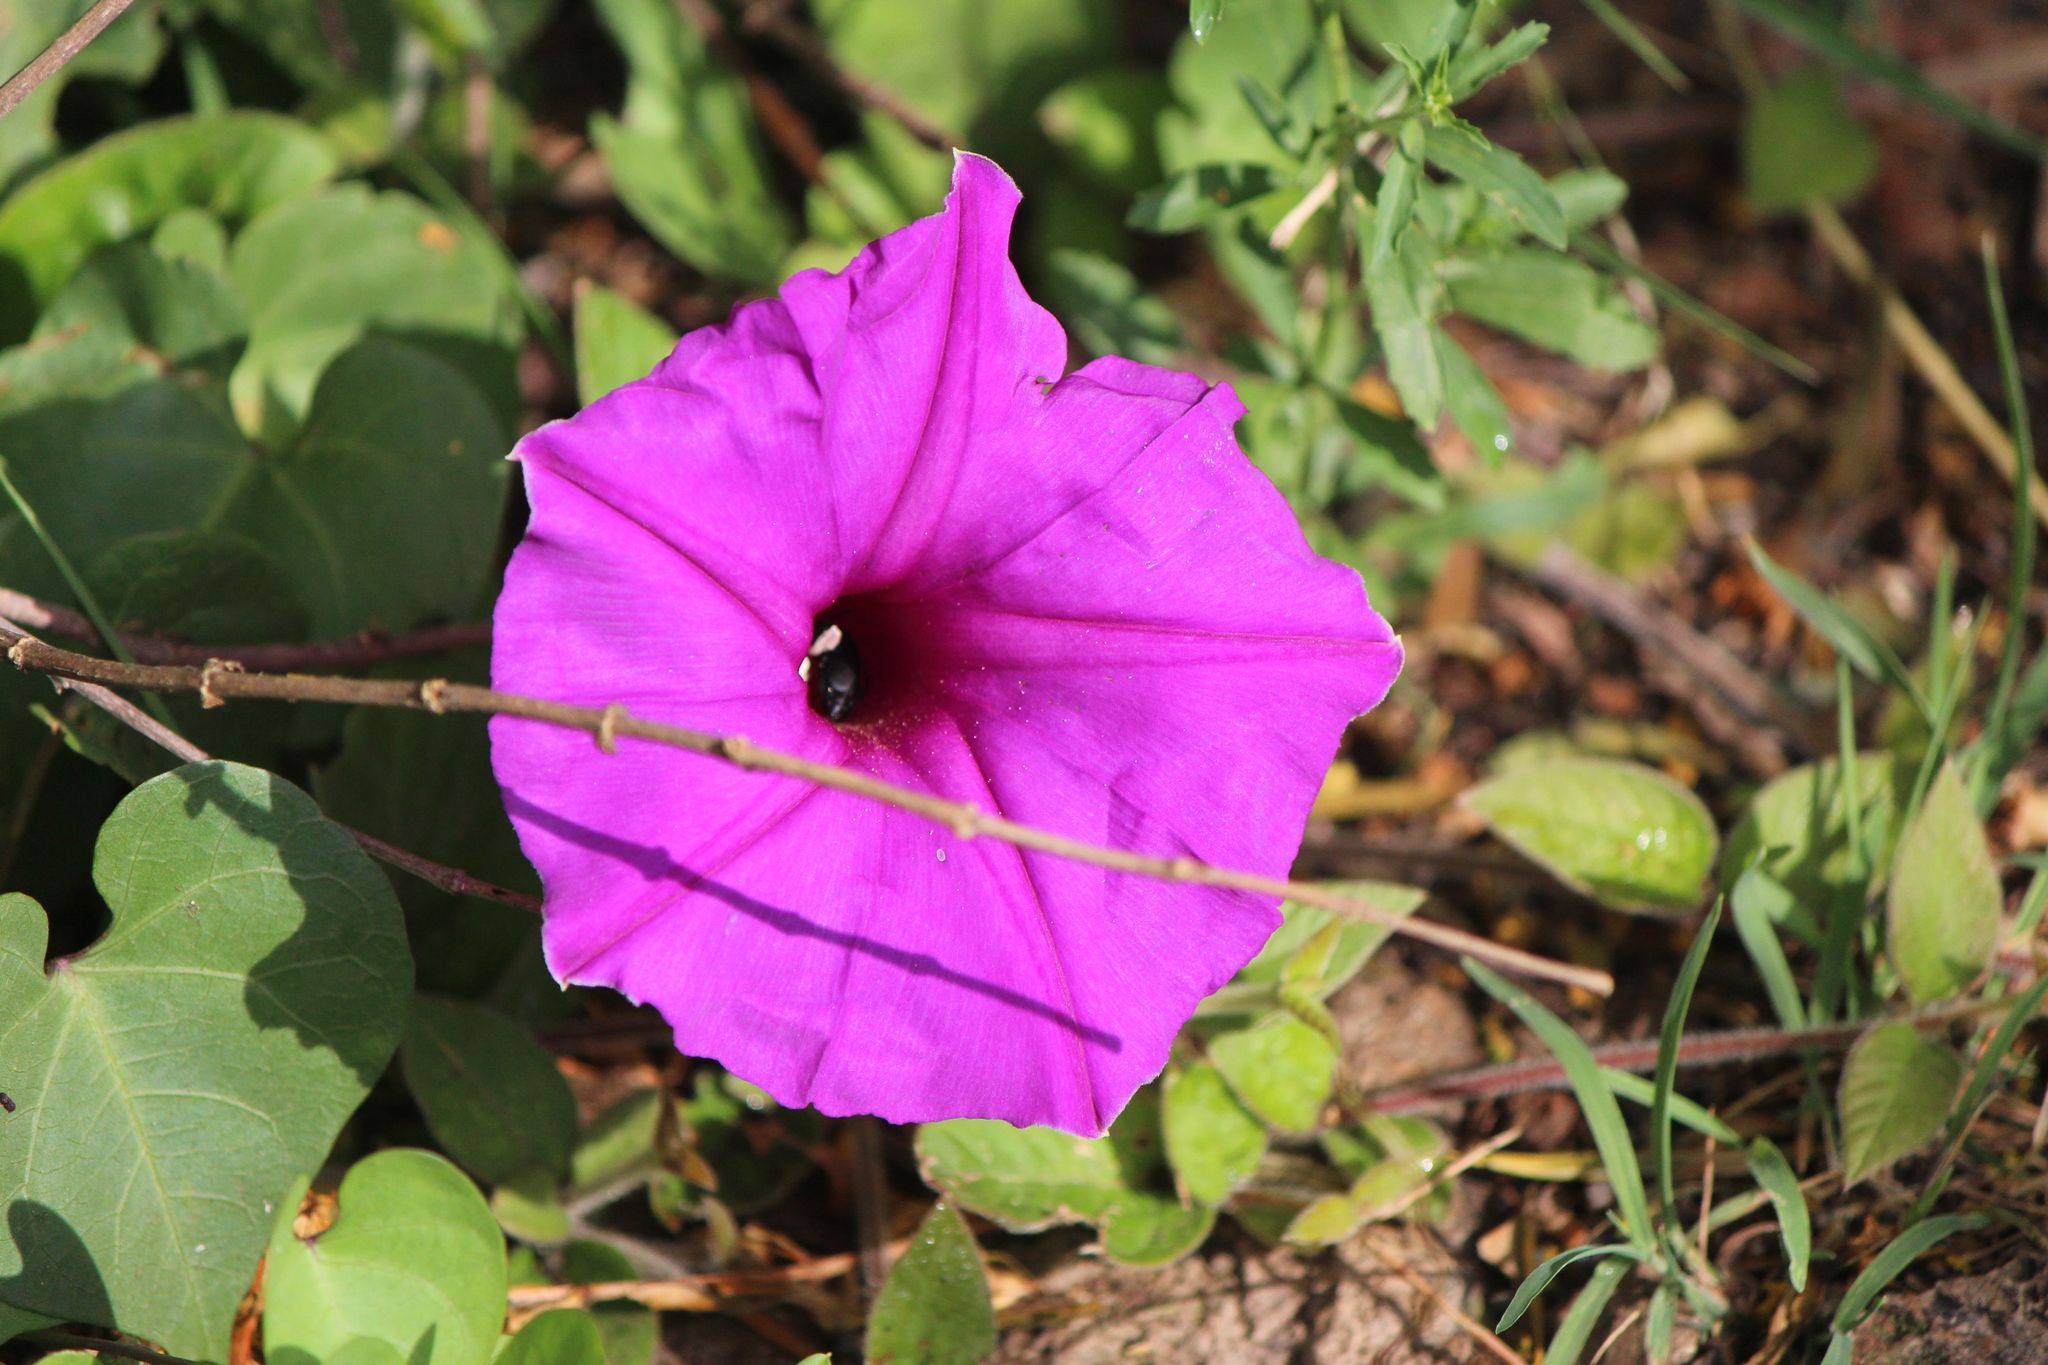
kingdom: Plantae
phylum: Tracheophyta
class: Magnoliopsida
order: Solanales
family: Convolvulaceae
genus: Ipomoea
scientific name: Ipomoea
